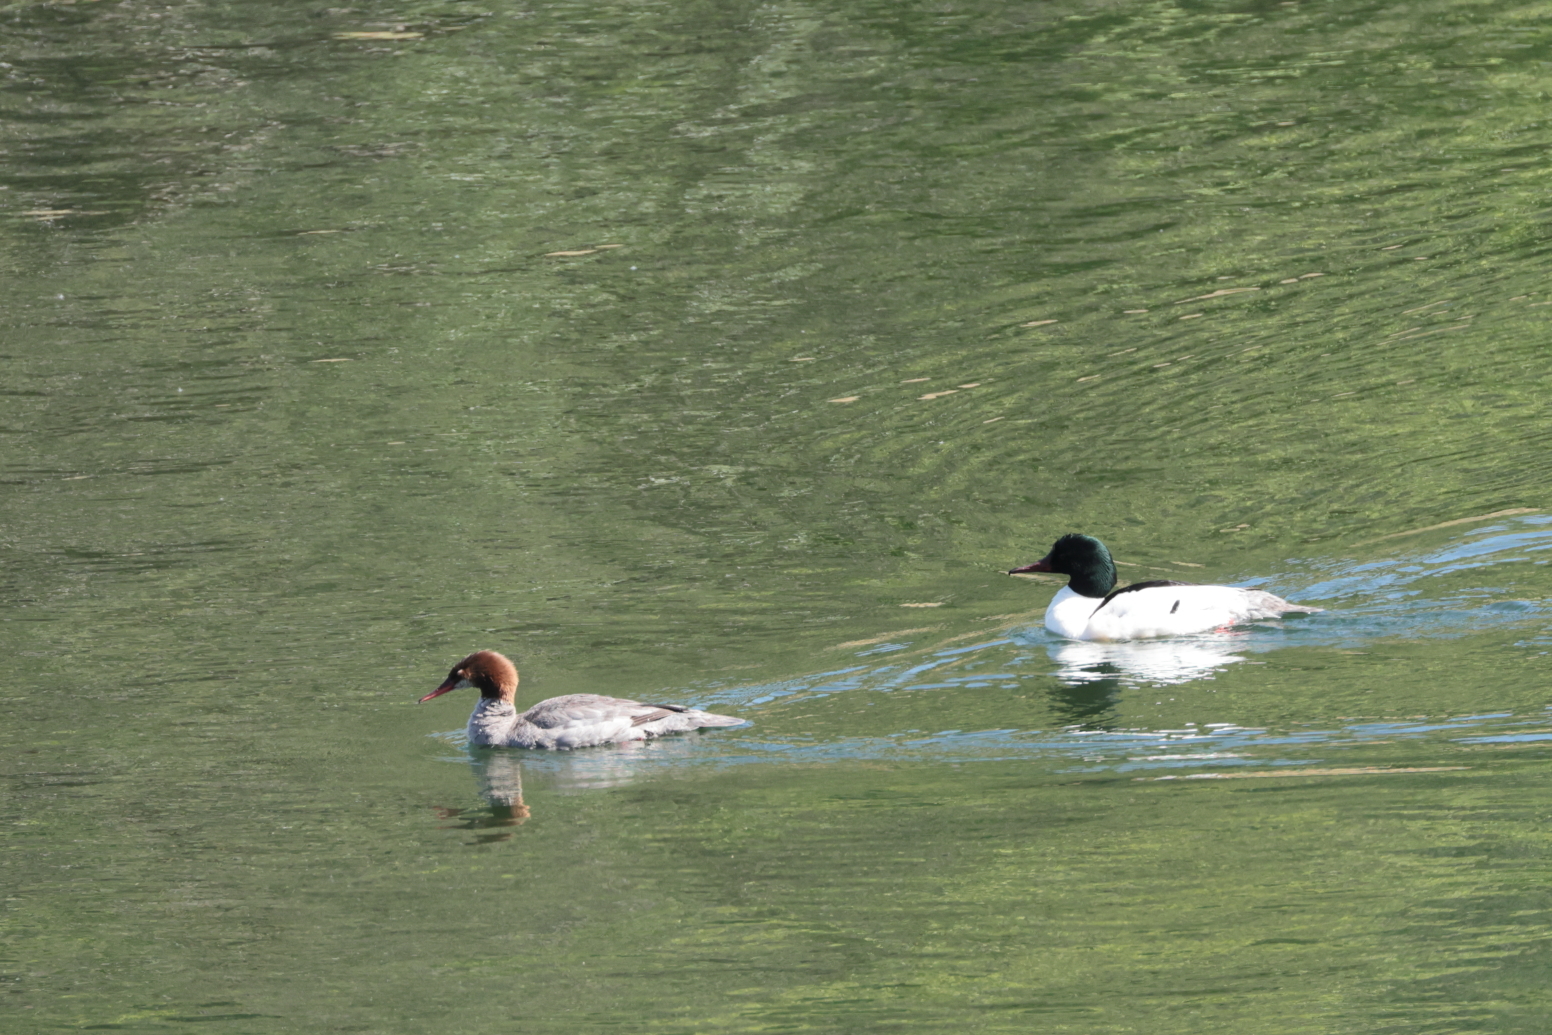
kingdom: Animalia
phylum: Chordata
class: Aves
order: Anseriformes
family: Anatidae
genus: Mergus
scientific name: Mergus merganser
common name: Common merganser
